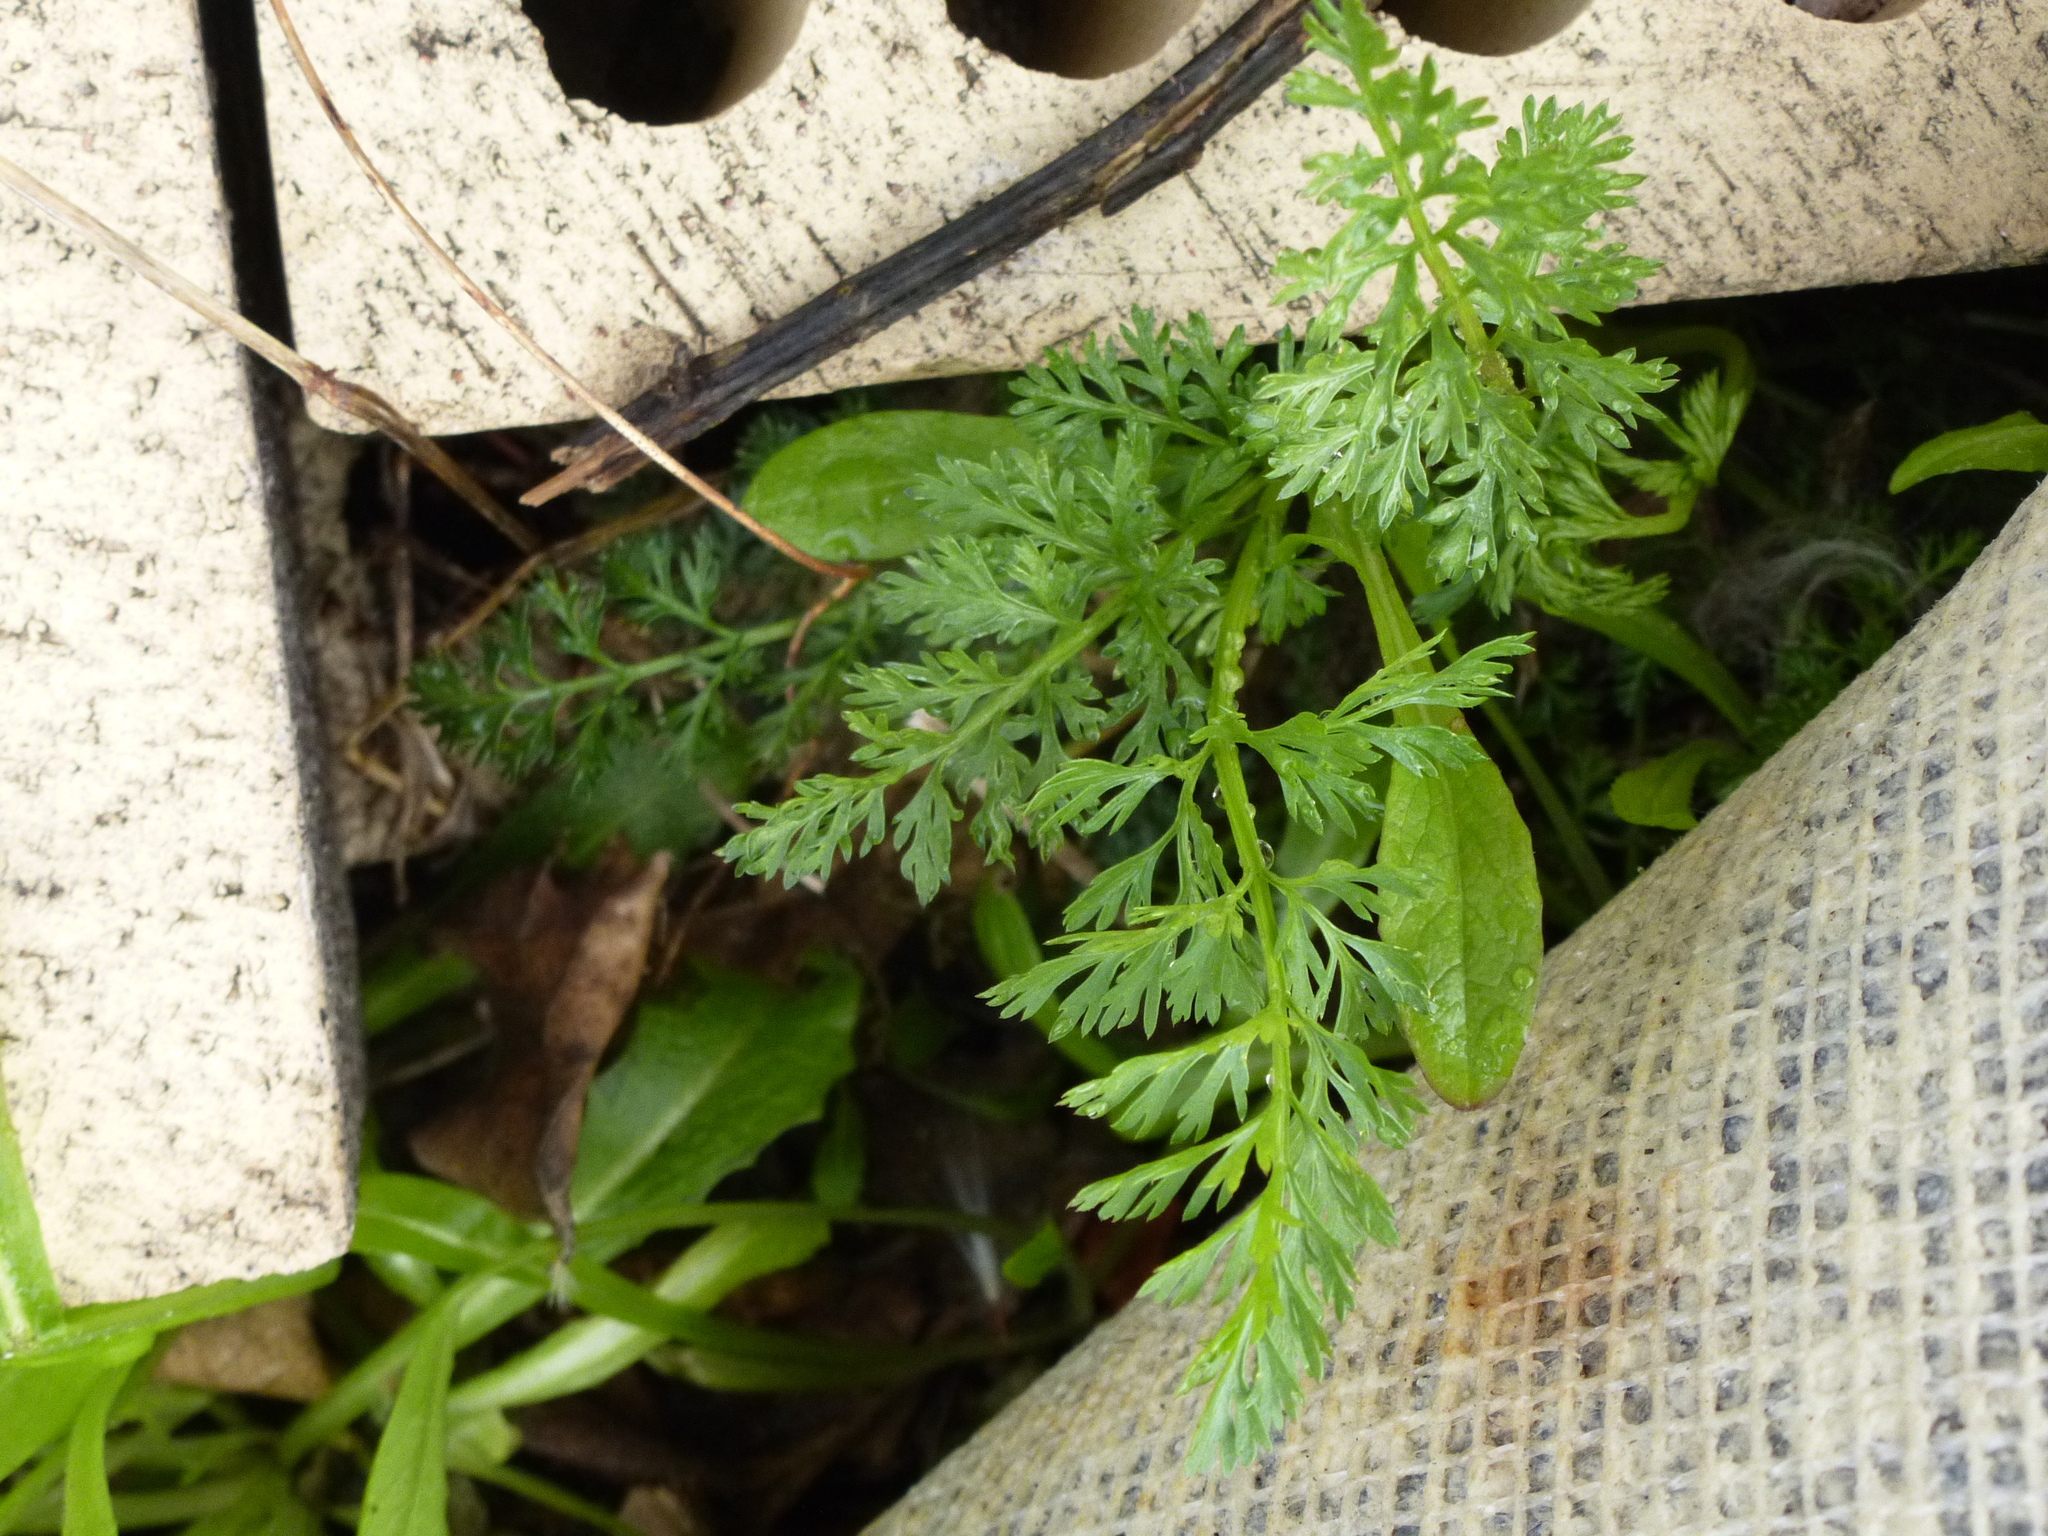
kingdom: Plantae
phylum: Tracheophyta
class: Magnoliopsida
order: Apiales
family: Apiaceae
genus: Daucus
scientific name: Daucus carota
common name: Wild carrot
